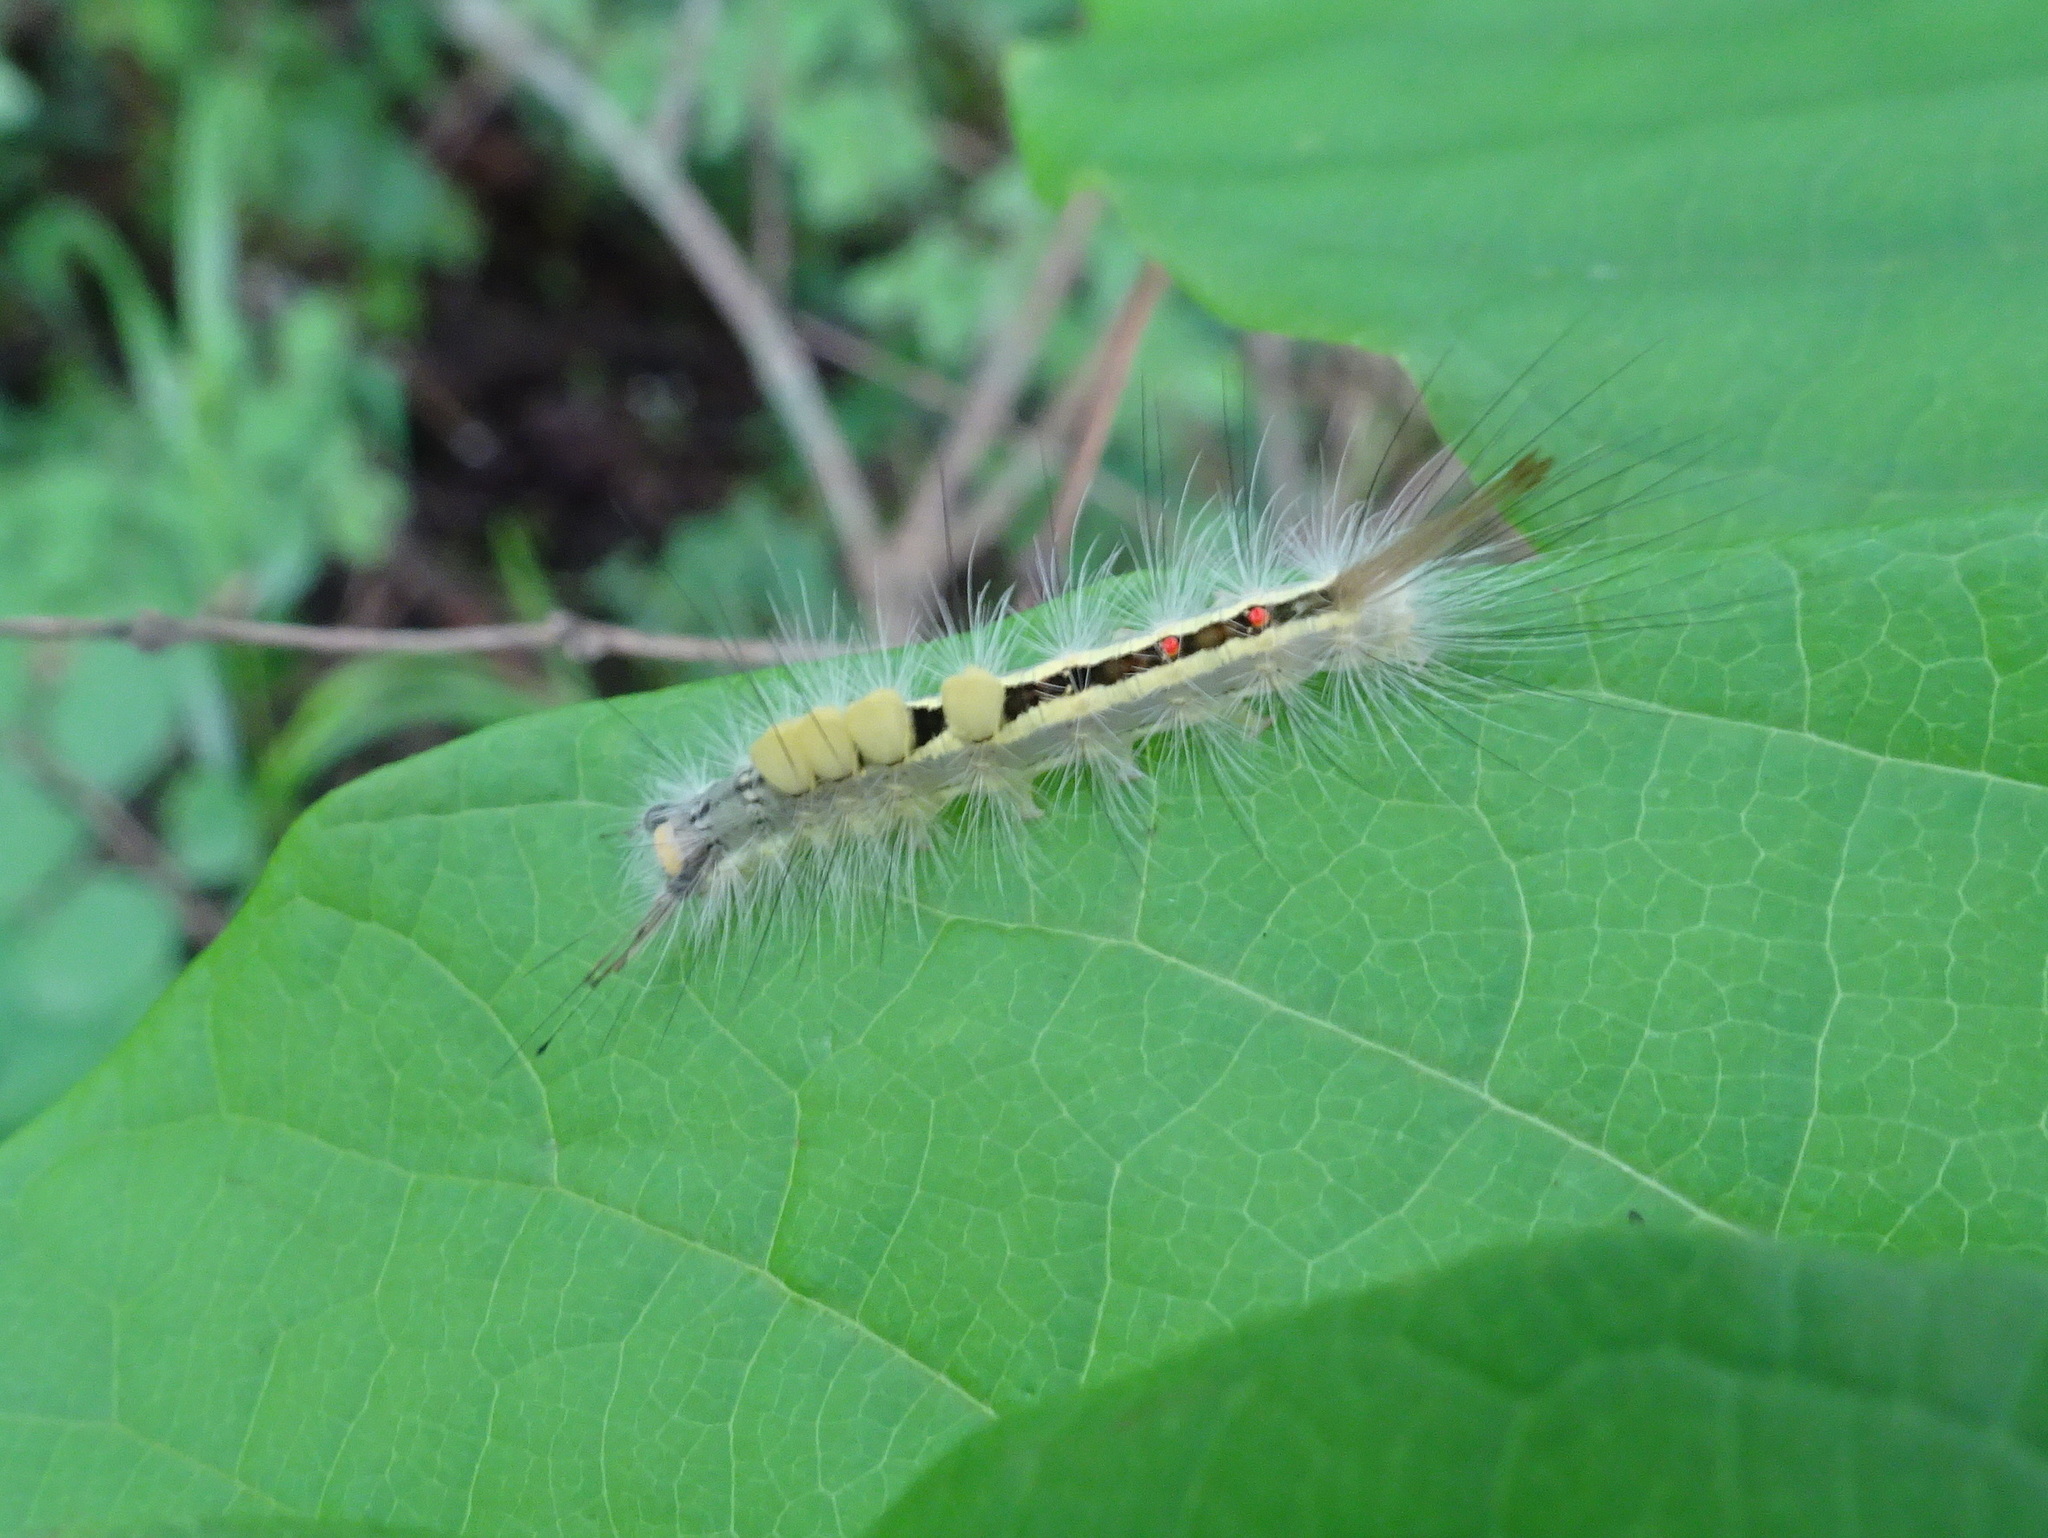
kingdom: Animalia
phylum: Arthropoda
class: Insecta
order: Lepidoptera
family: Erebidae
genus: Orgyia
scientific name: Orgyia leucostigma
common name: White-marked tussock moth
